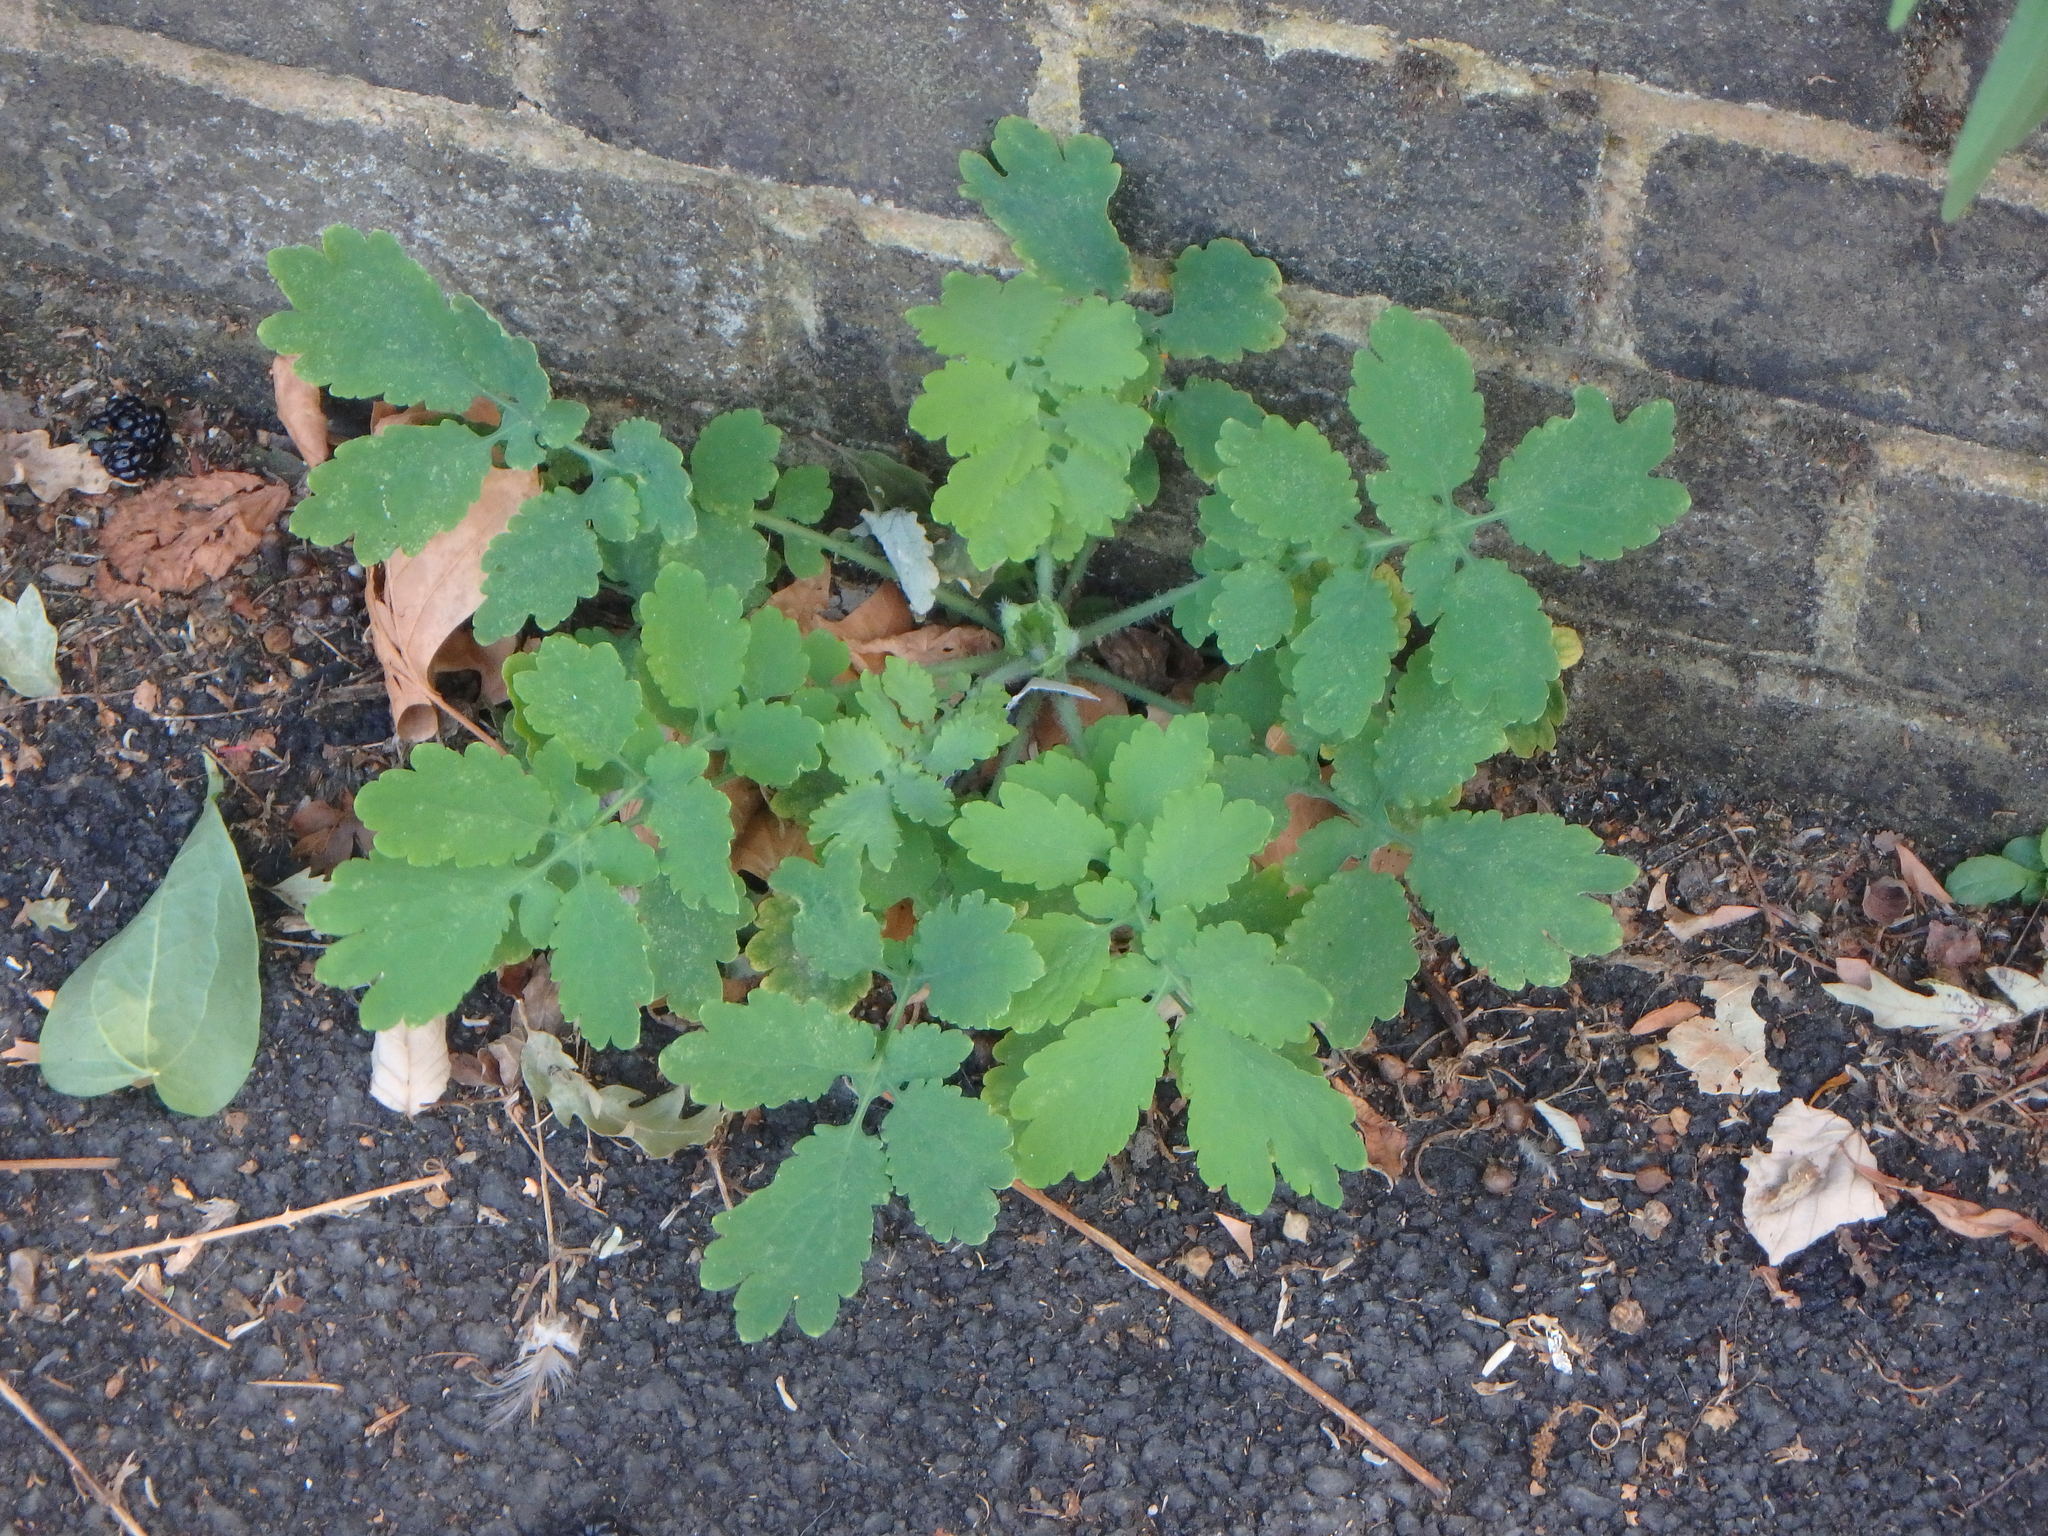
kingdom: Plantae
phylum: Tracheophyta
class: Magnoliopsida
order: Ranunculales
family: Papaveraceae
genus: Chelidonium
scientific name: Chelidonium majus
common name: Greater celandine
